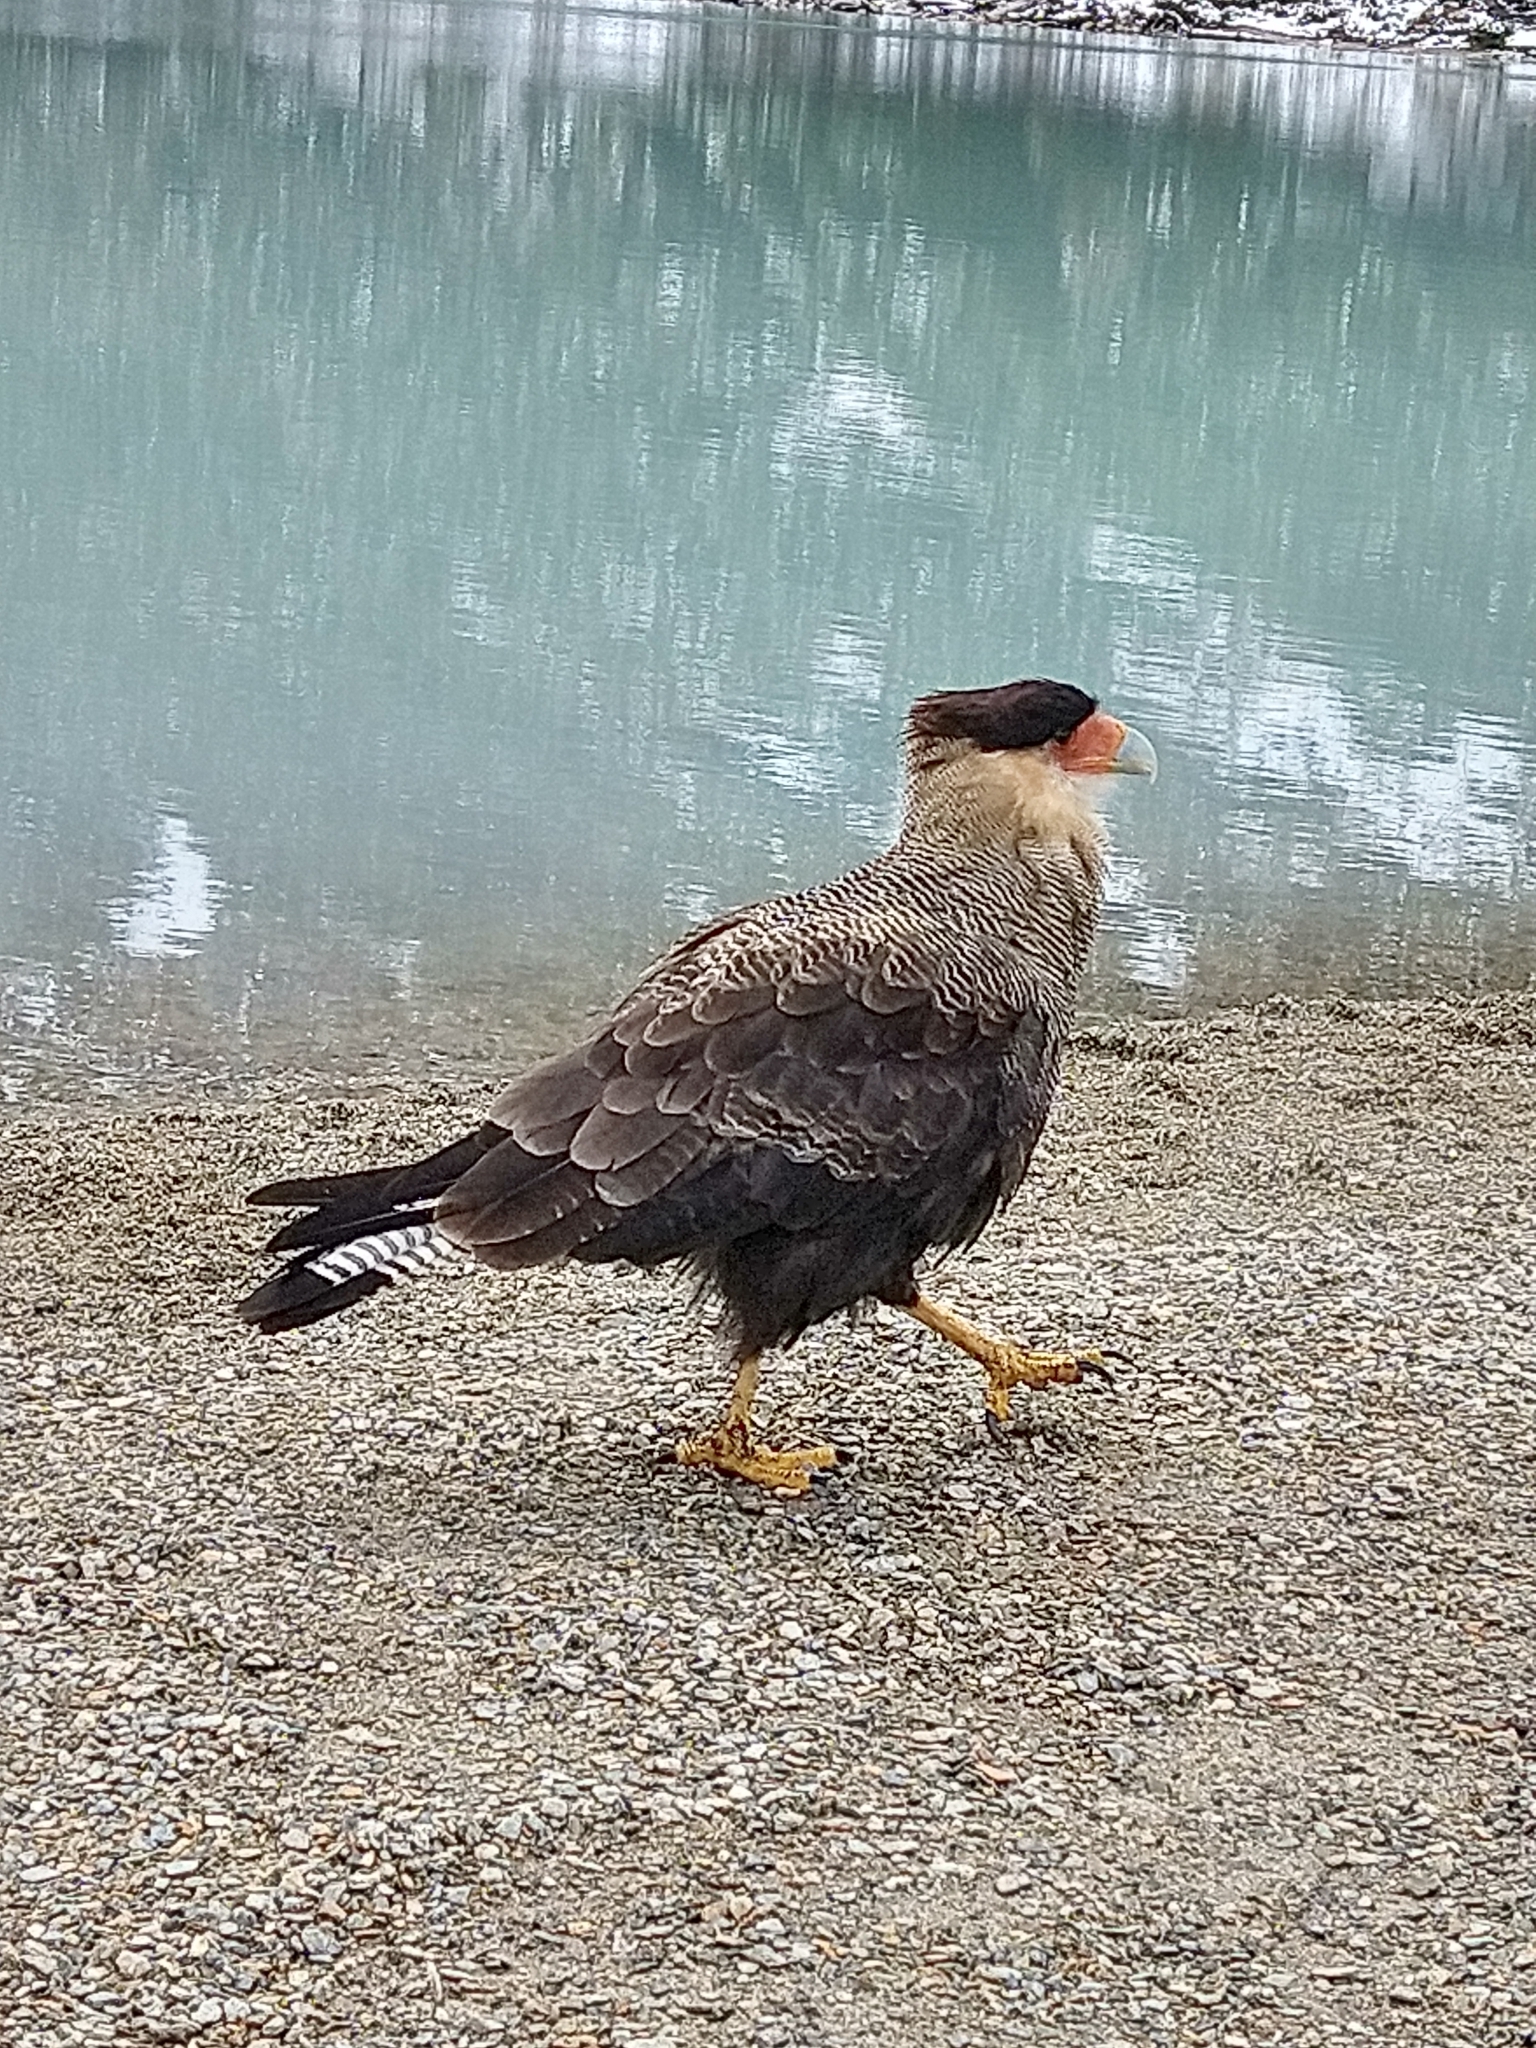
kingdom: Animalia
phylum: Chordata
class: Aves
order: Falconiformes
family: Falconidae
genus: Caracara
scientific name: Caracara plancus
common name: Southern caracara
